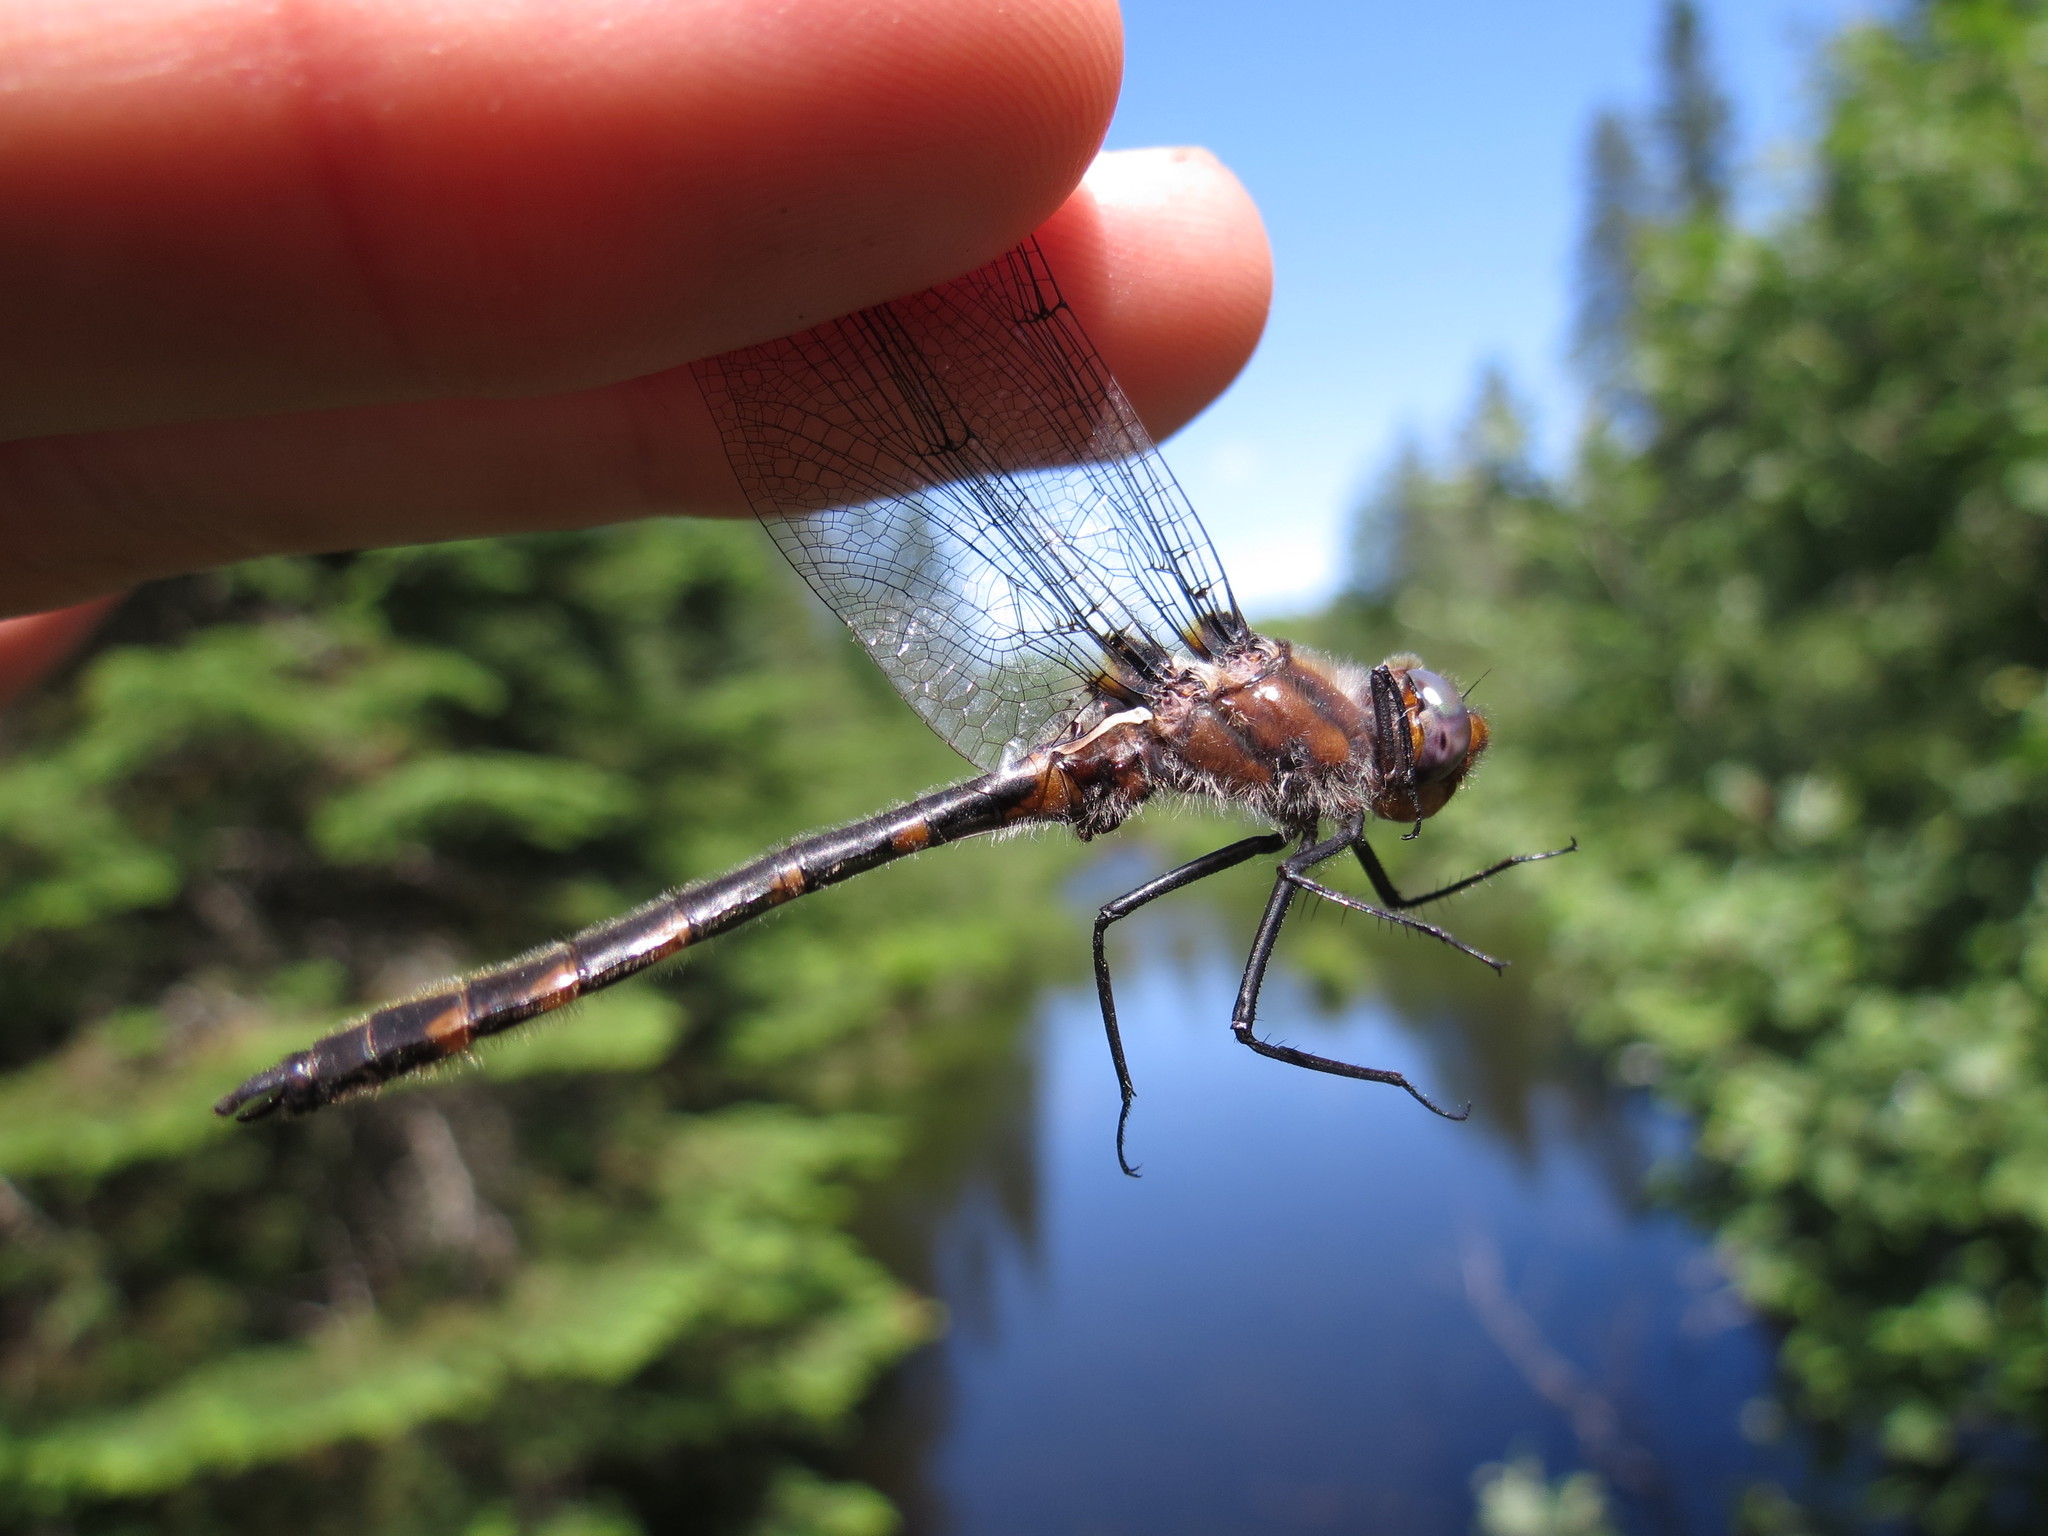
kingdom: Animalia
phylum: Arthropoda
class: Insecta
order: Odonata
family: Corduliidae
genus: Helocordulia
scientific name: Helocordulia uhleri
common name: Uhler's sundragon
